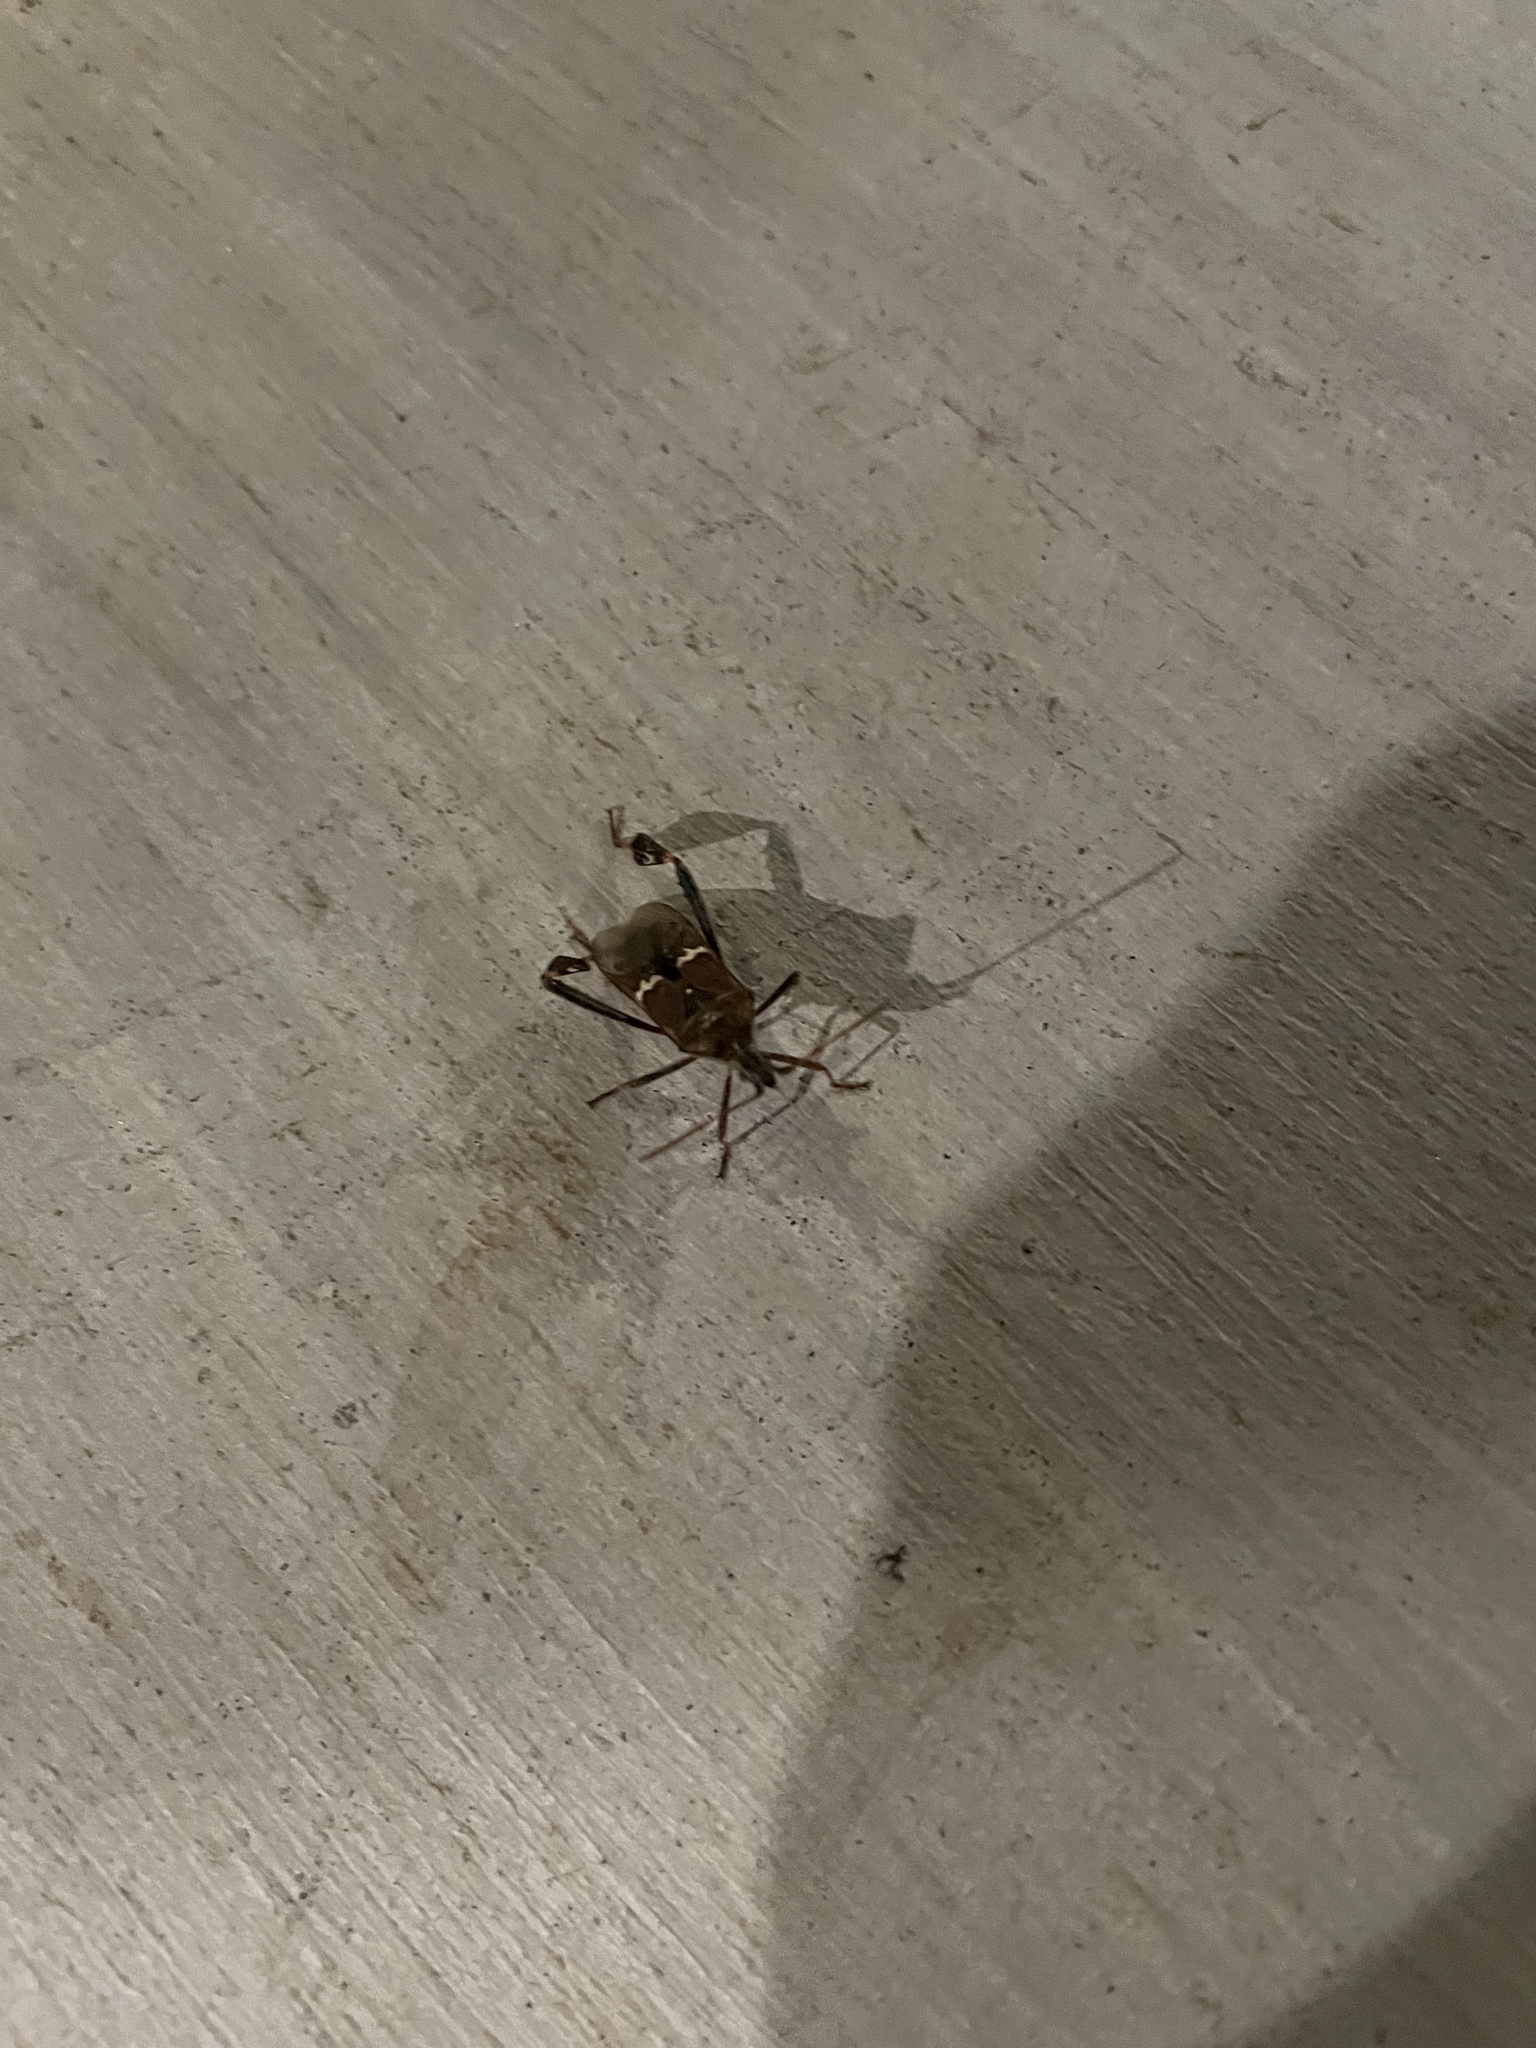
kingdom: Animalia
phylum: Arthropoda
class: Insecta
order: Hemiptera
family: Coreidae
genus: Leptoglossus
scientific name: Leptoglossus clypealis
